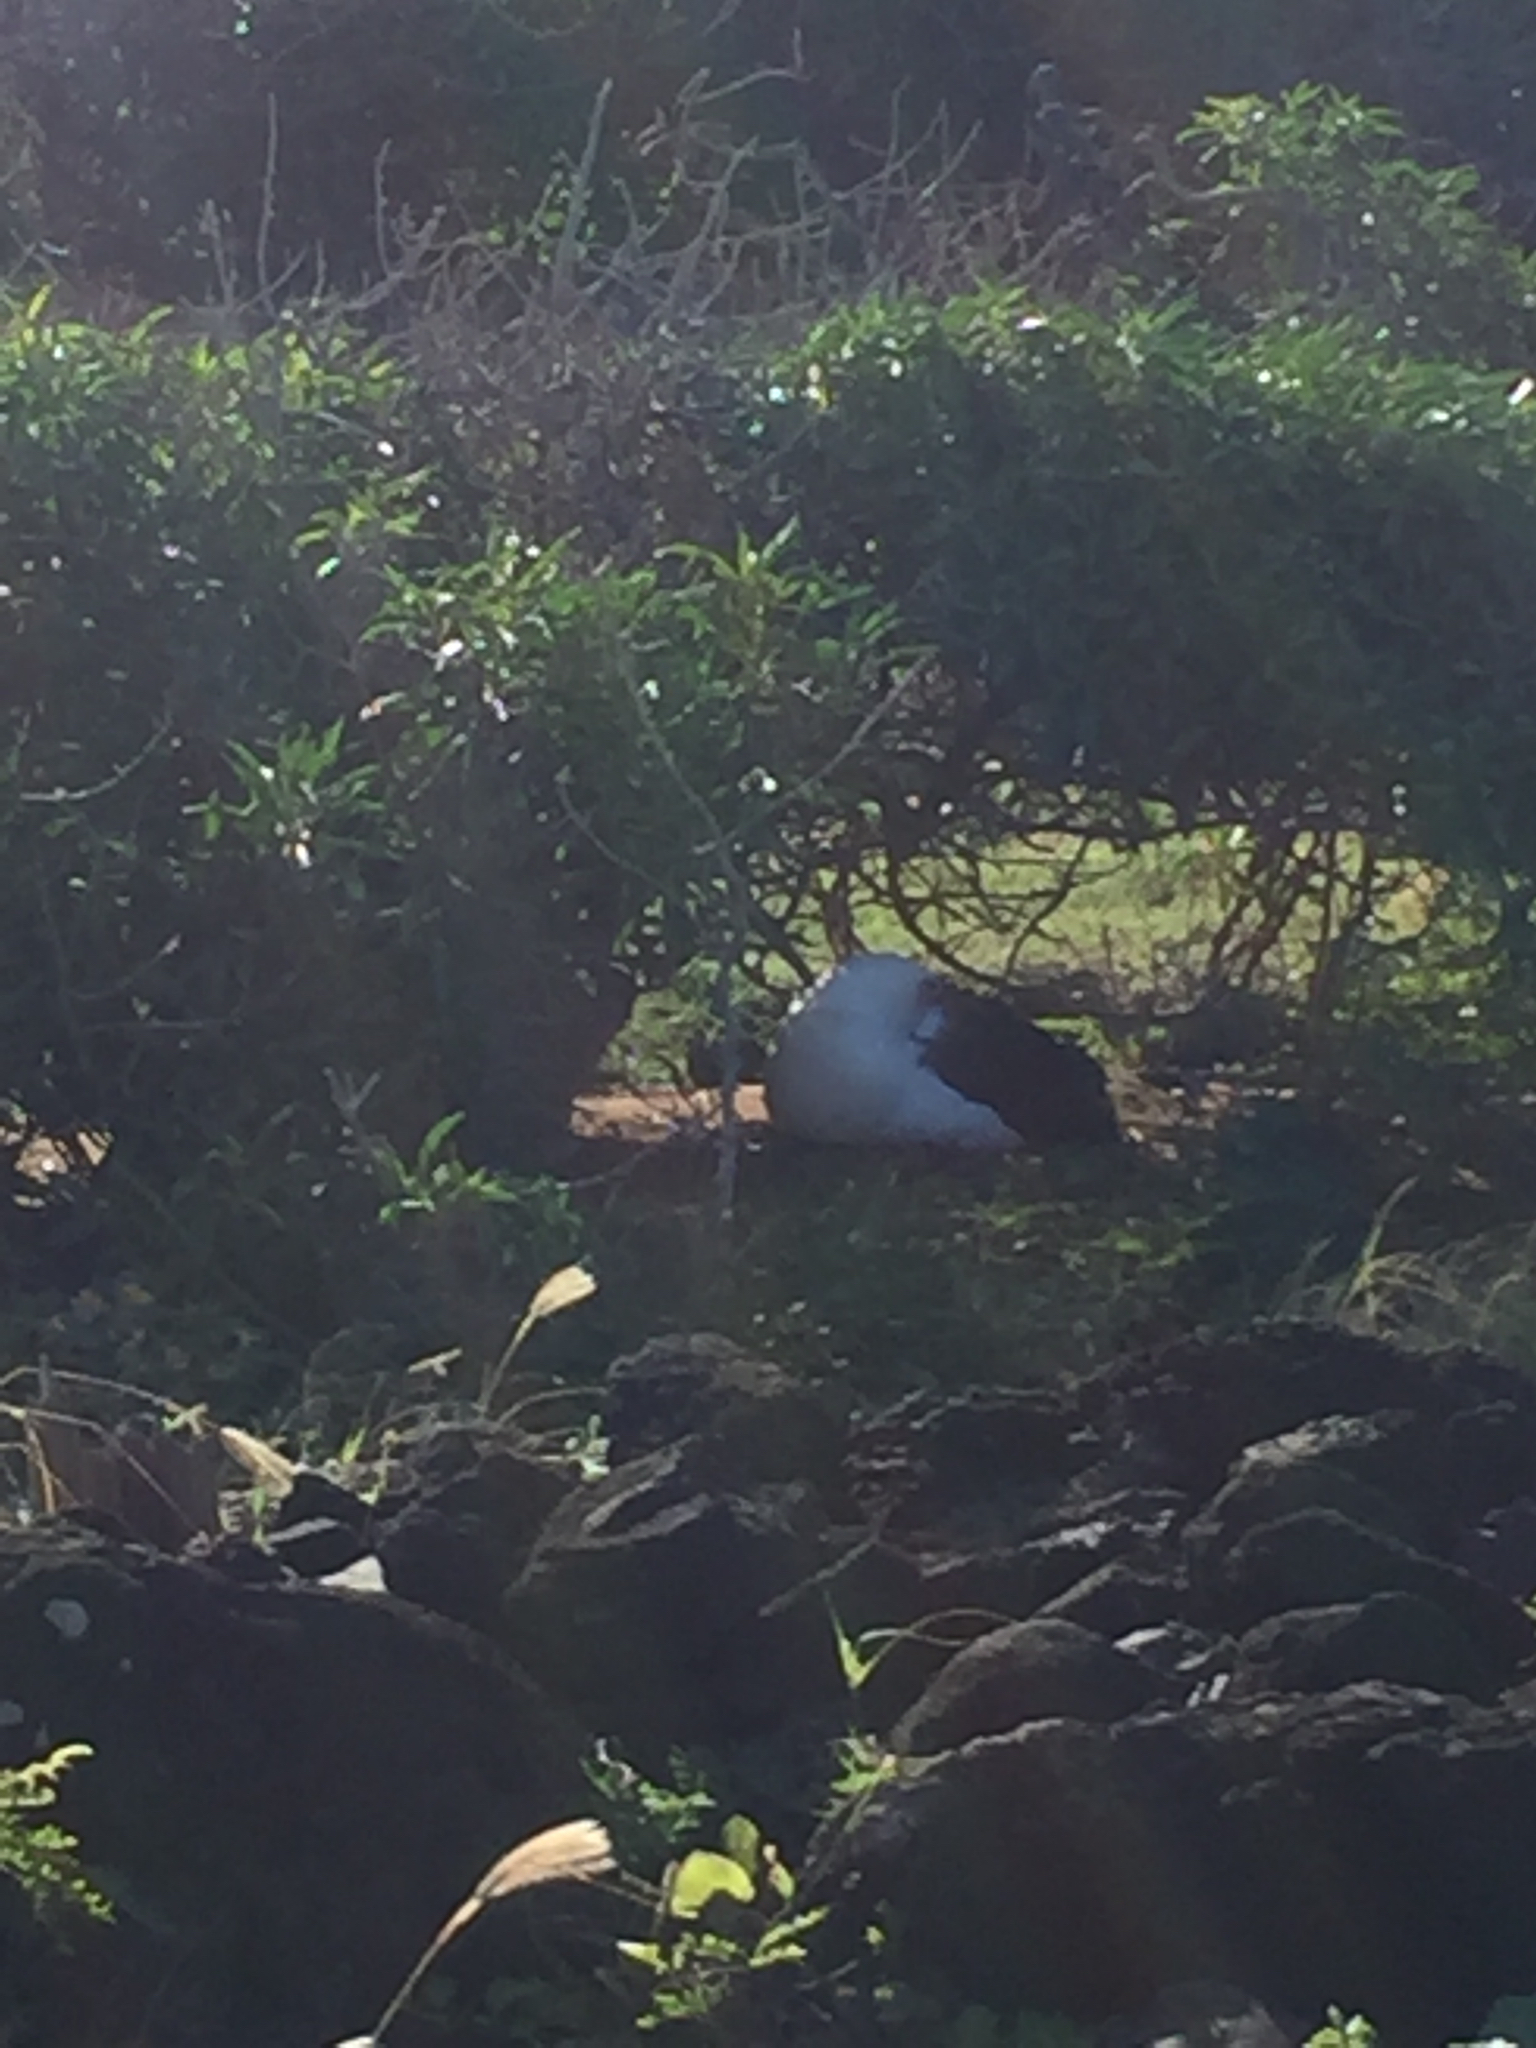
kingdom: Animalia
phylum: Chordata
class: Aves
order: Procellariiformes
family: Diomedeidae
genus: Phoebastria
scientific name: Phoebastria immutabilis
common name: Laysan albatross
